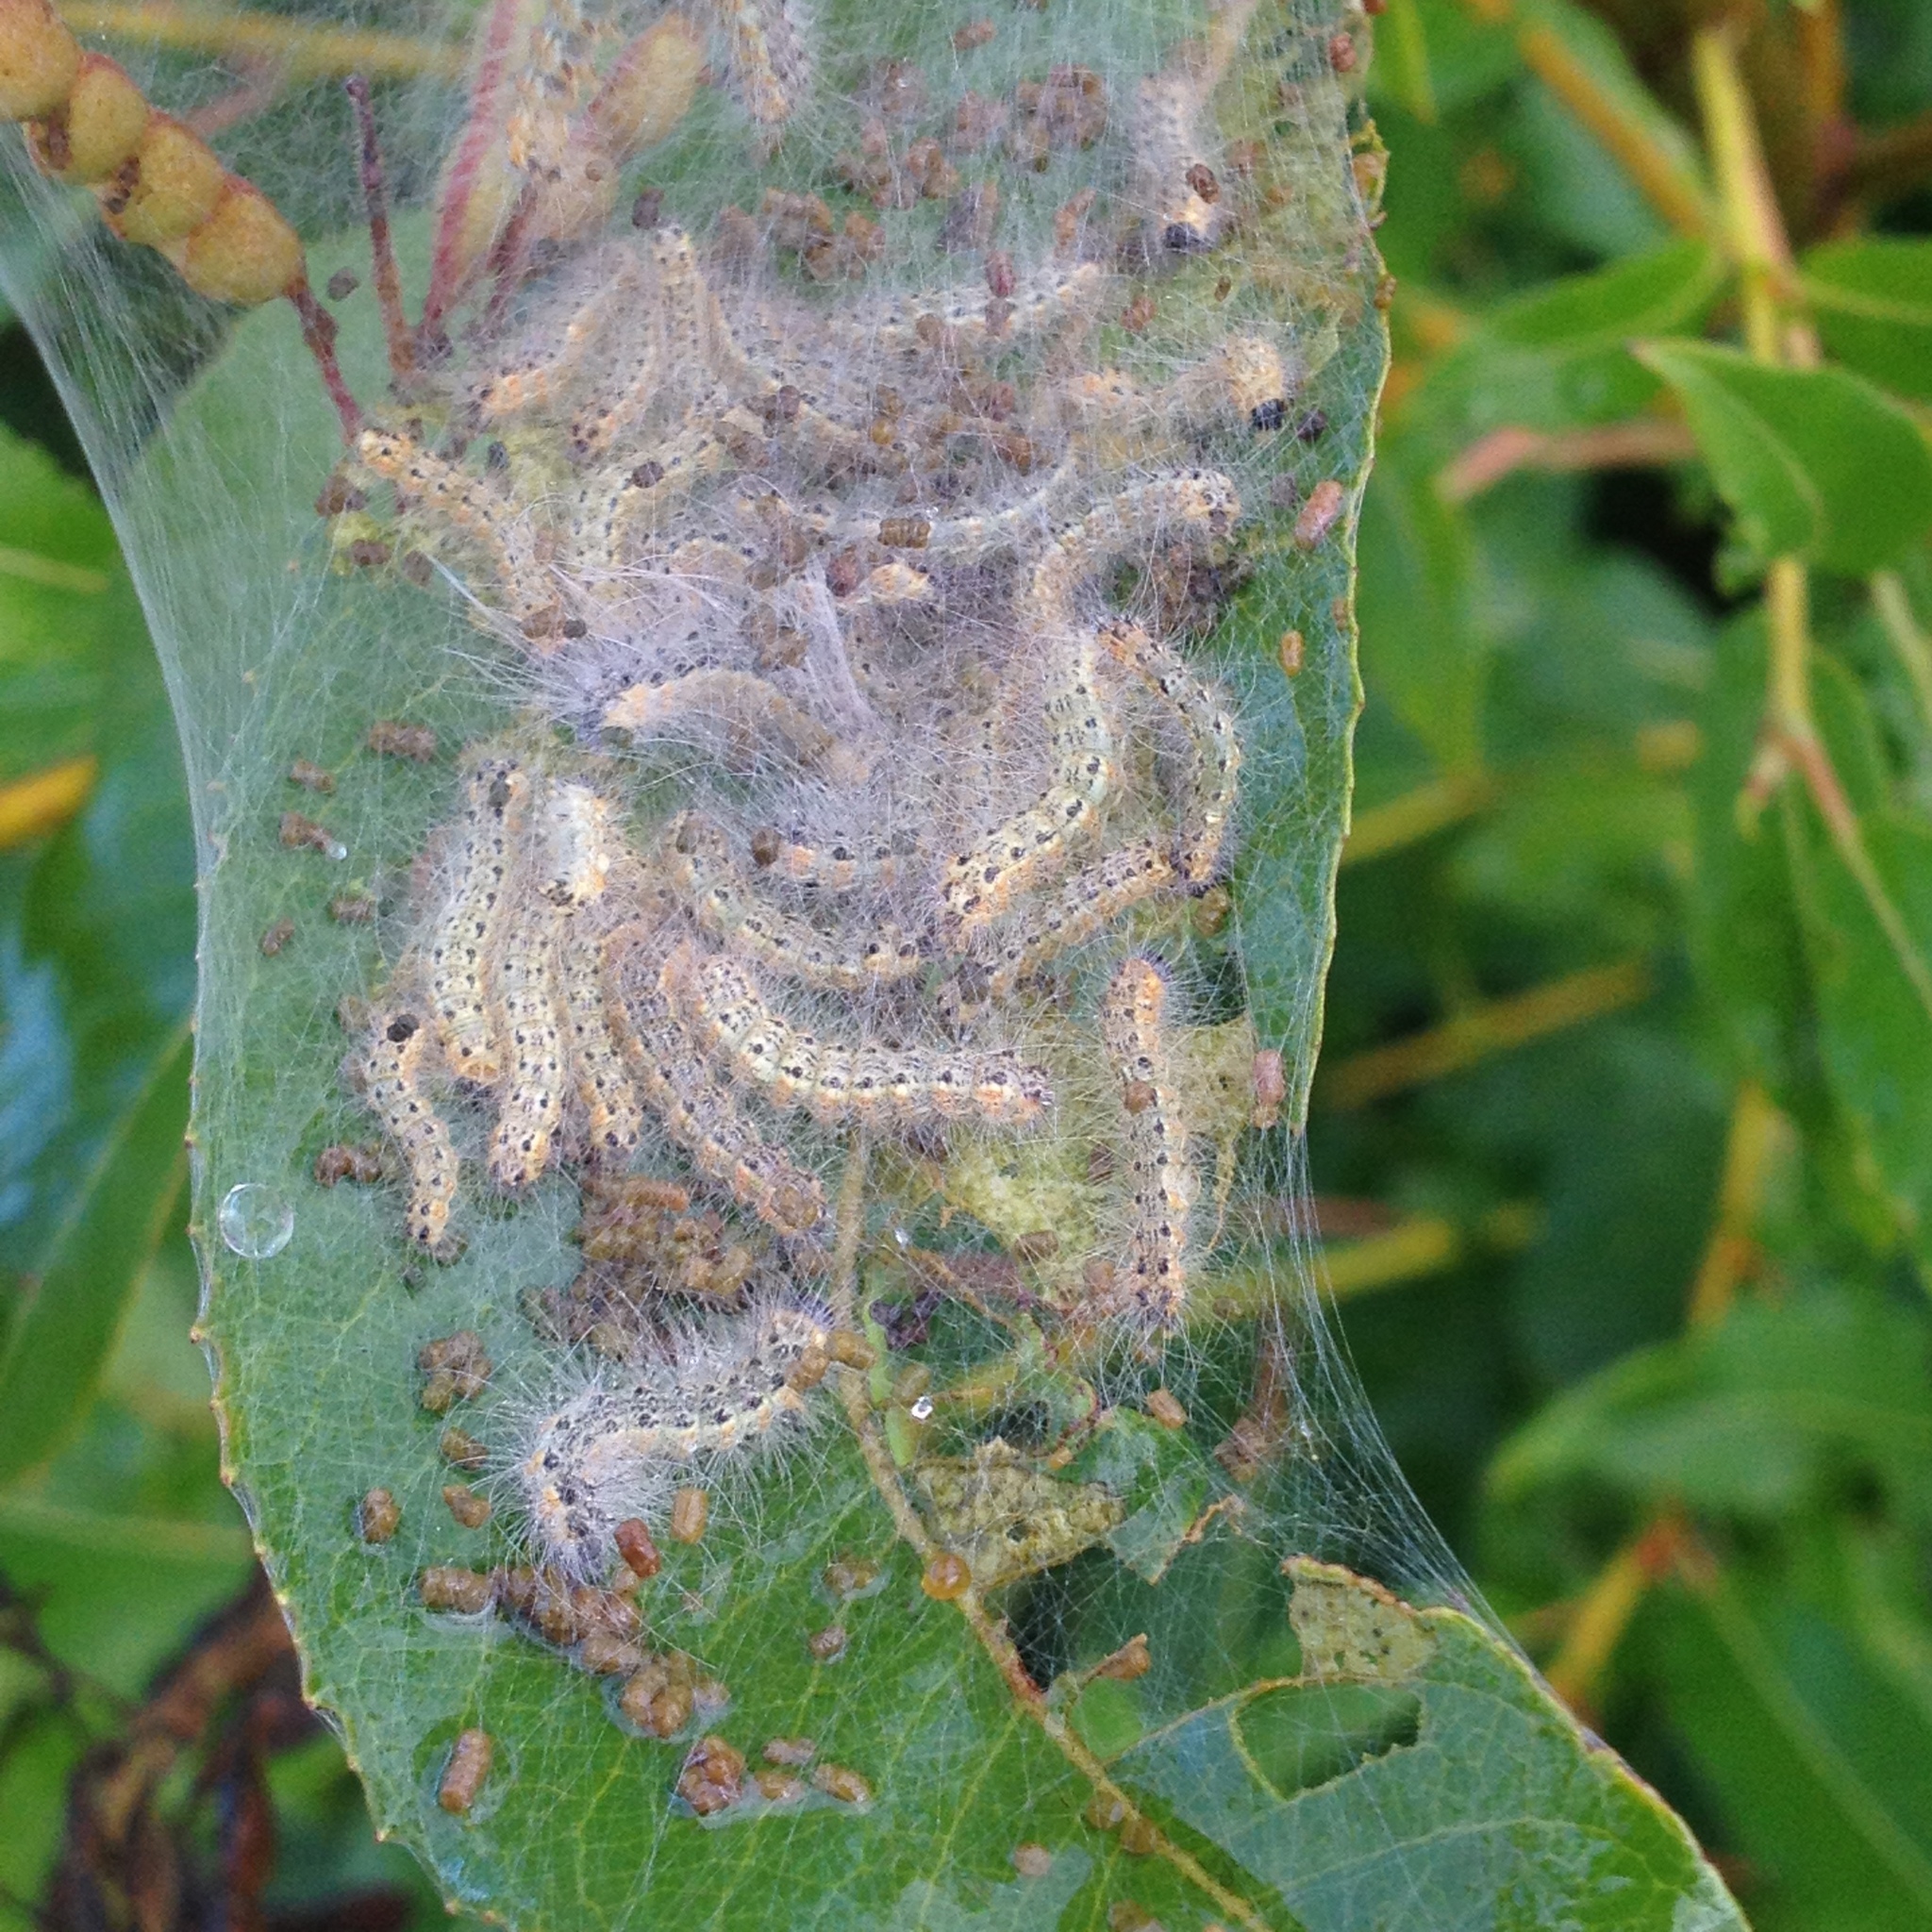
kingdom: Animalia
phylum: Arthropoda
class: Insecta
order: Lepidoptera
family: Erebidae
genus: Hyphantria
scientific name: Hyphantria cunea
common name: American white moth
